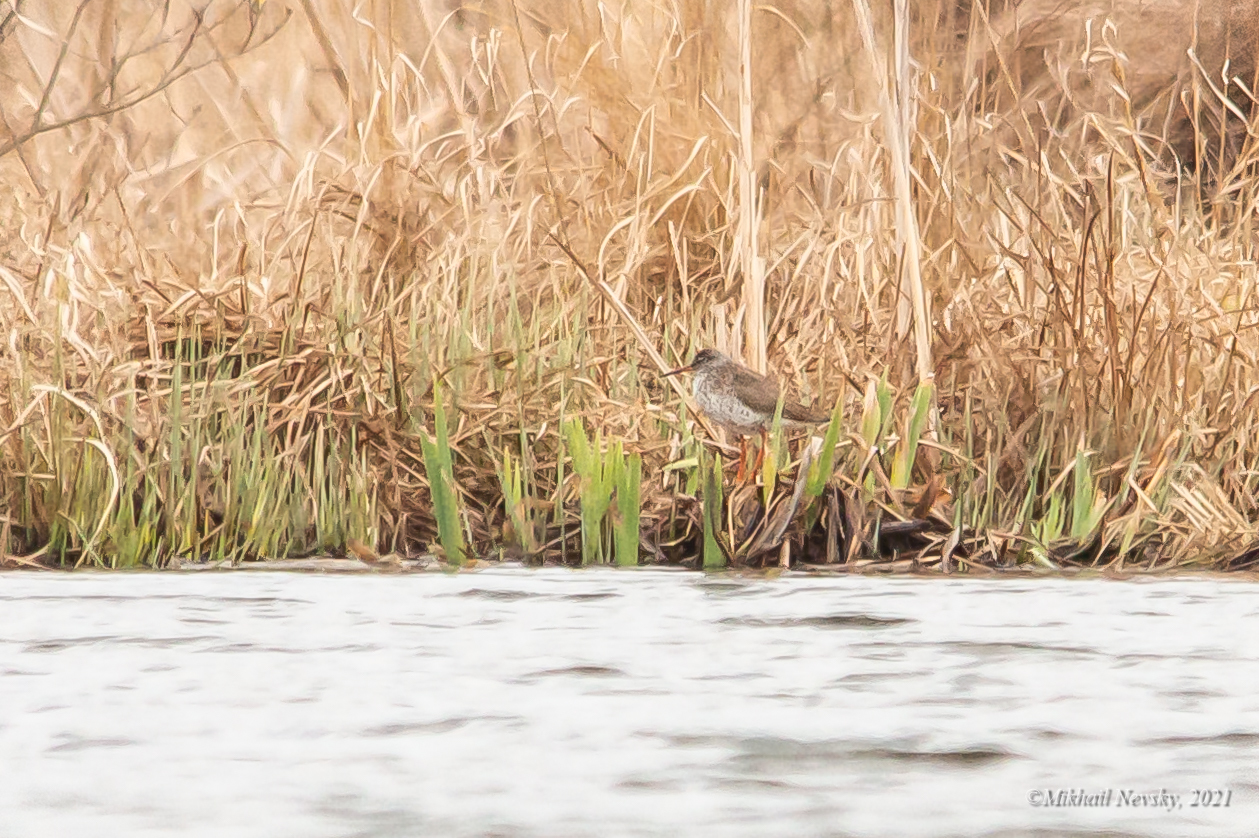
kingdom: Animalia
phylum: Chordata
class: Aves
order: Charadriiformes
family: Scolopacidae
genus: Tringa
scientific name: Tringa totanus
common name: Common redshank
